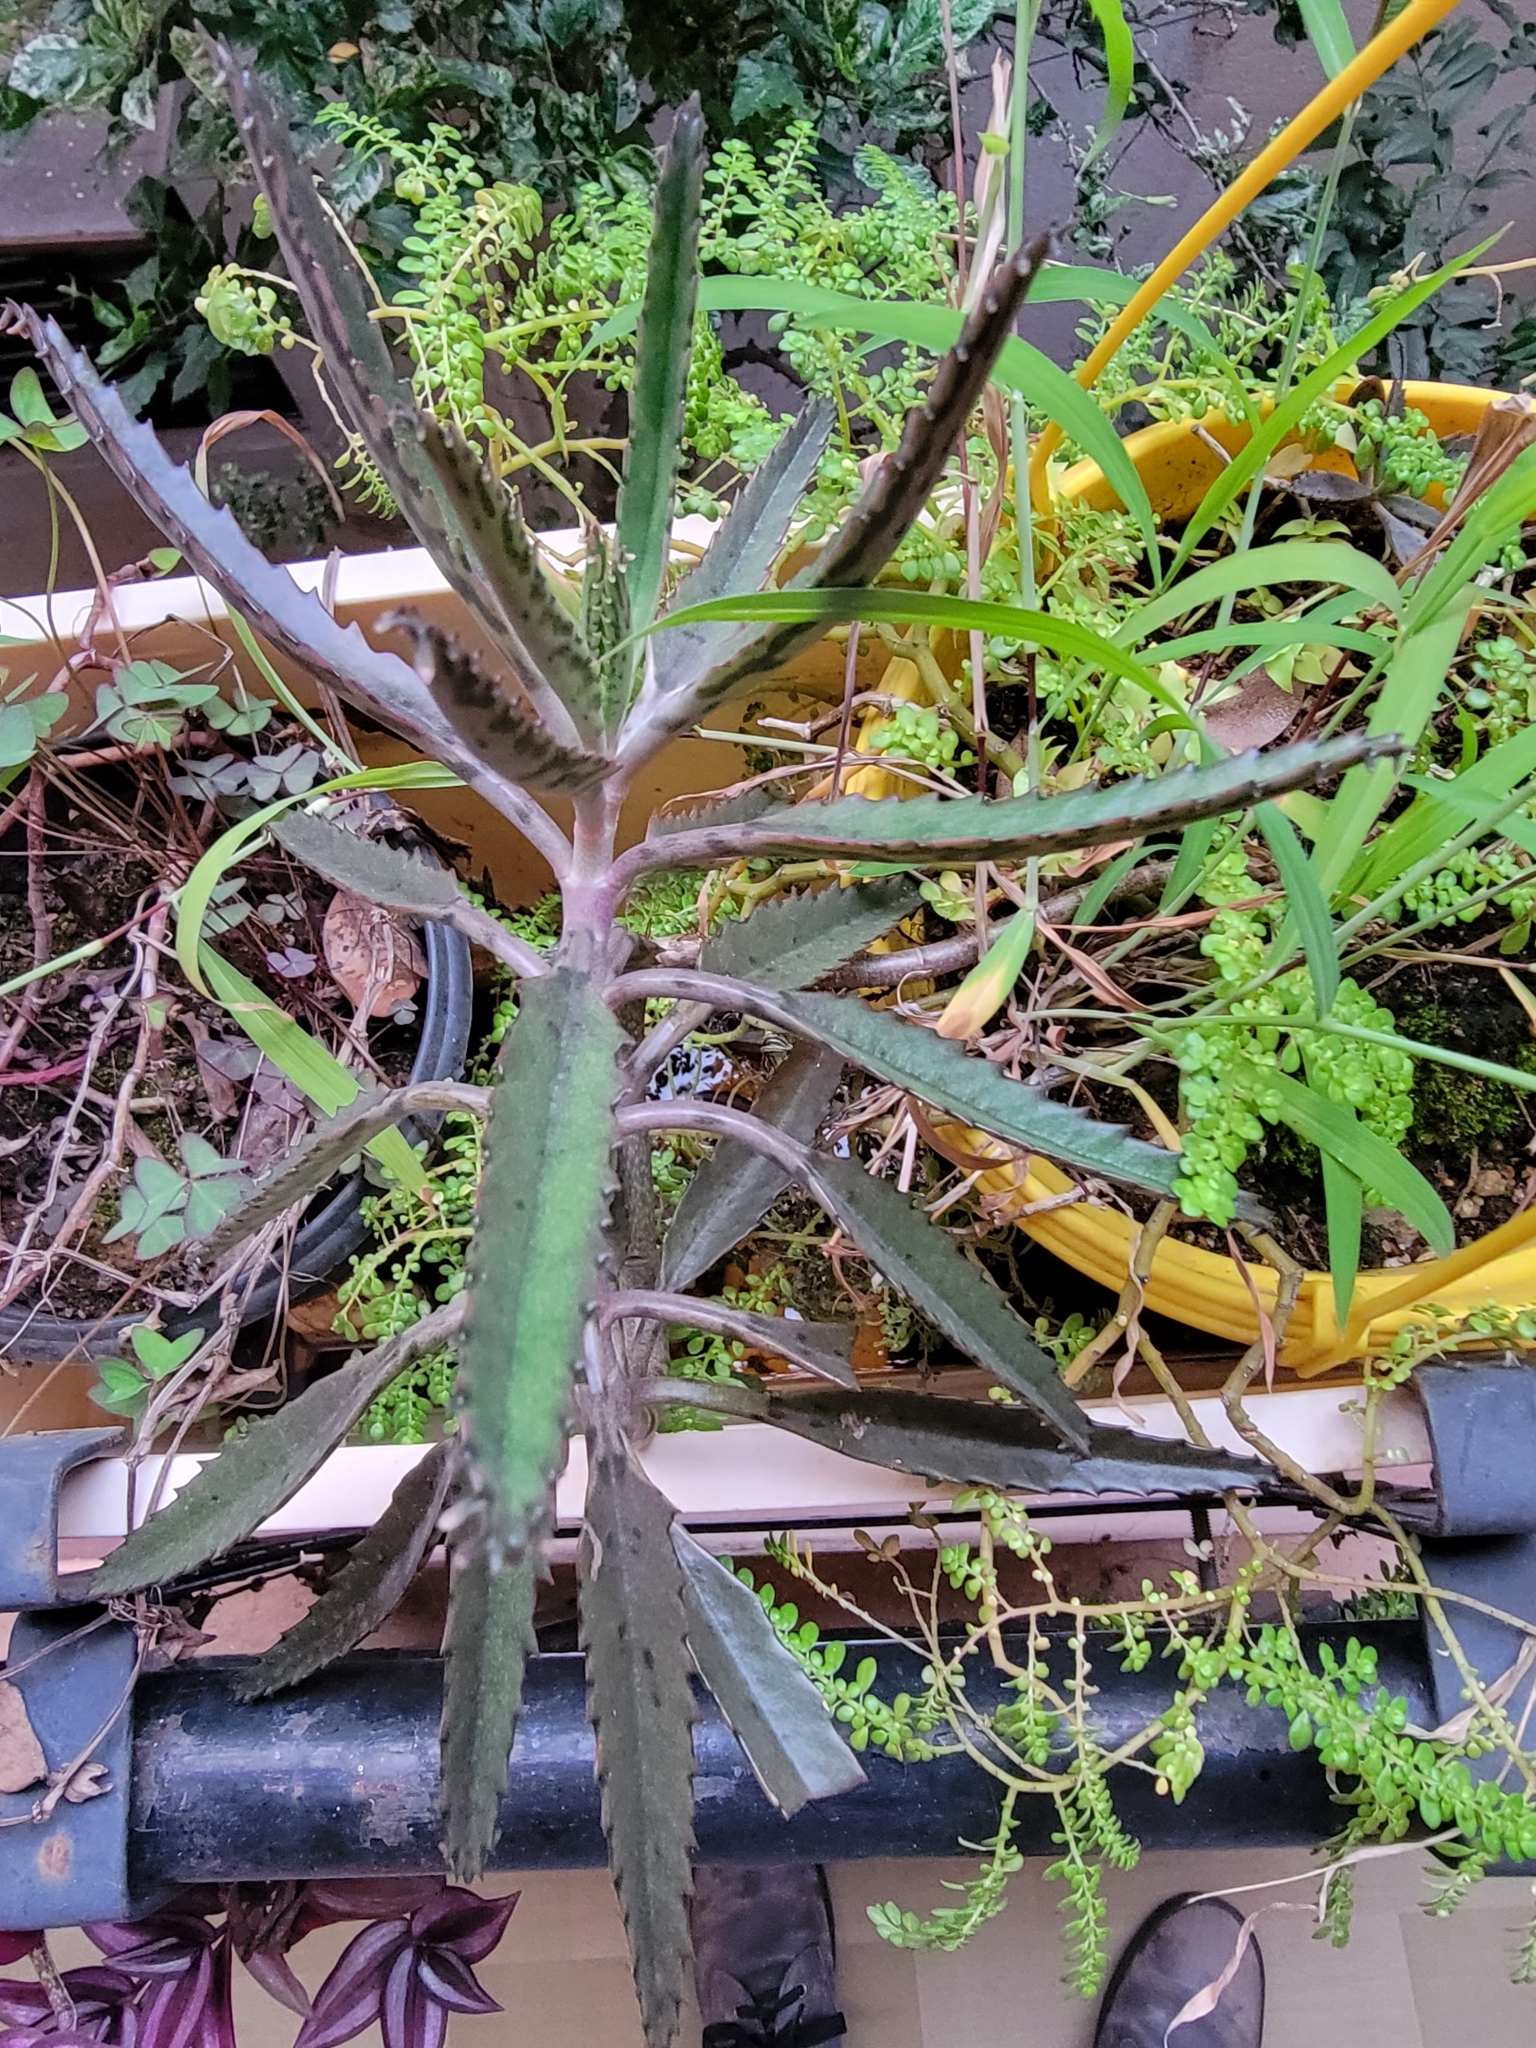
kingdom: Plantae
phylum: Tracheophyta
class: Magnoliopsida
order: Saxifragales
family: Crassulaceae
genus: Kalanchoe
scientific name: Kalanchoe houghtonii
